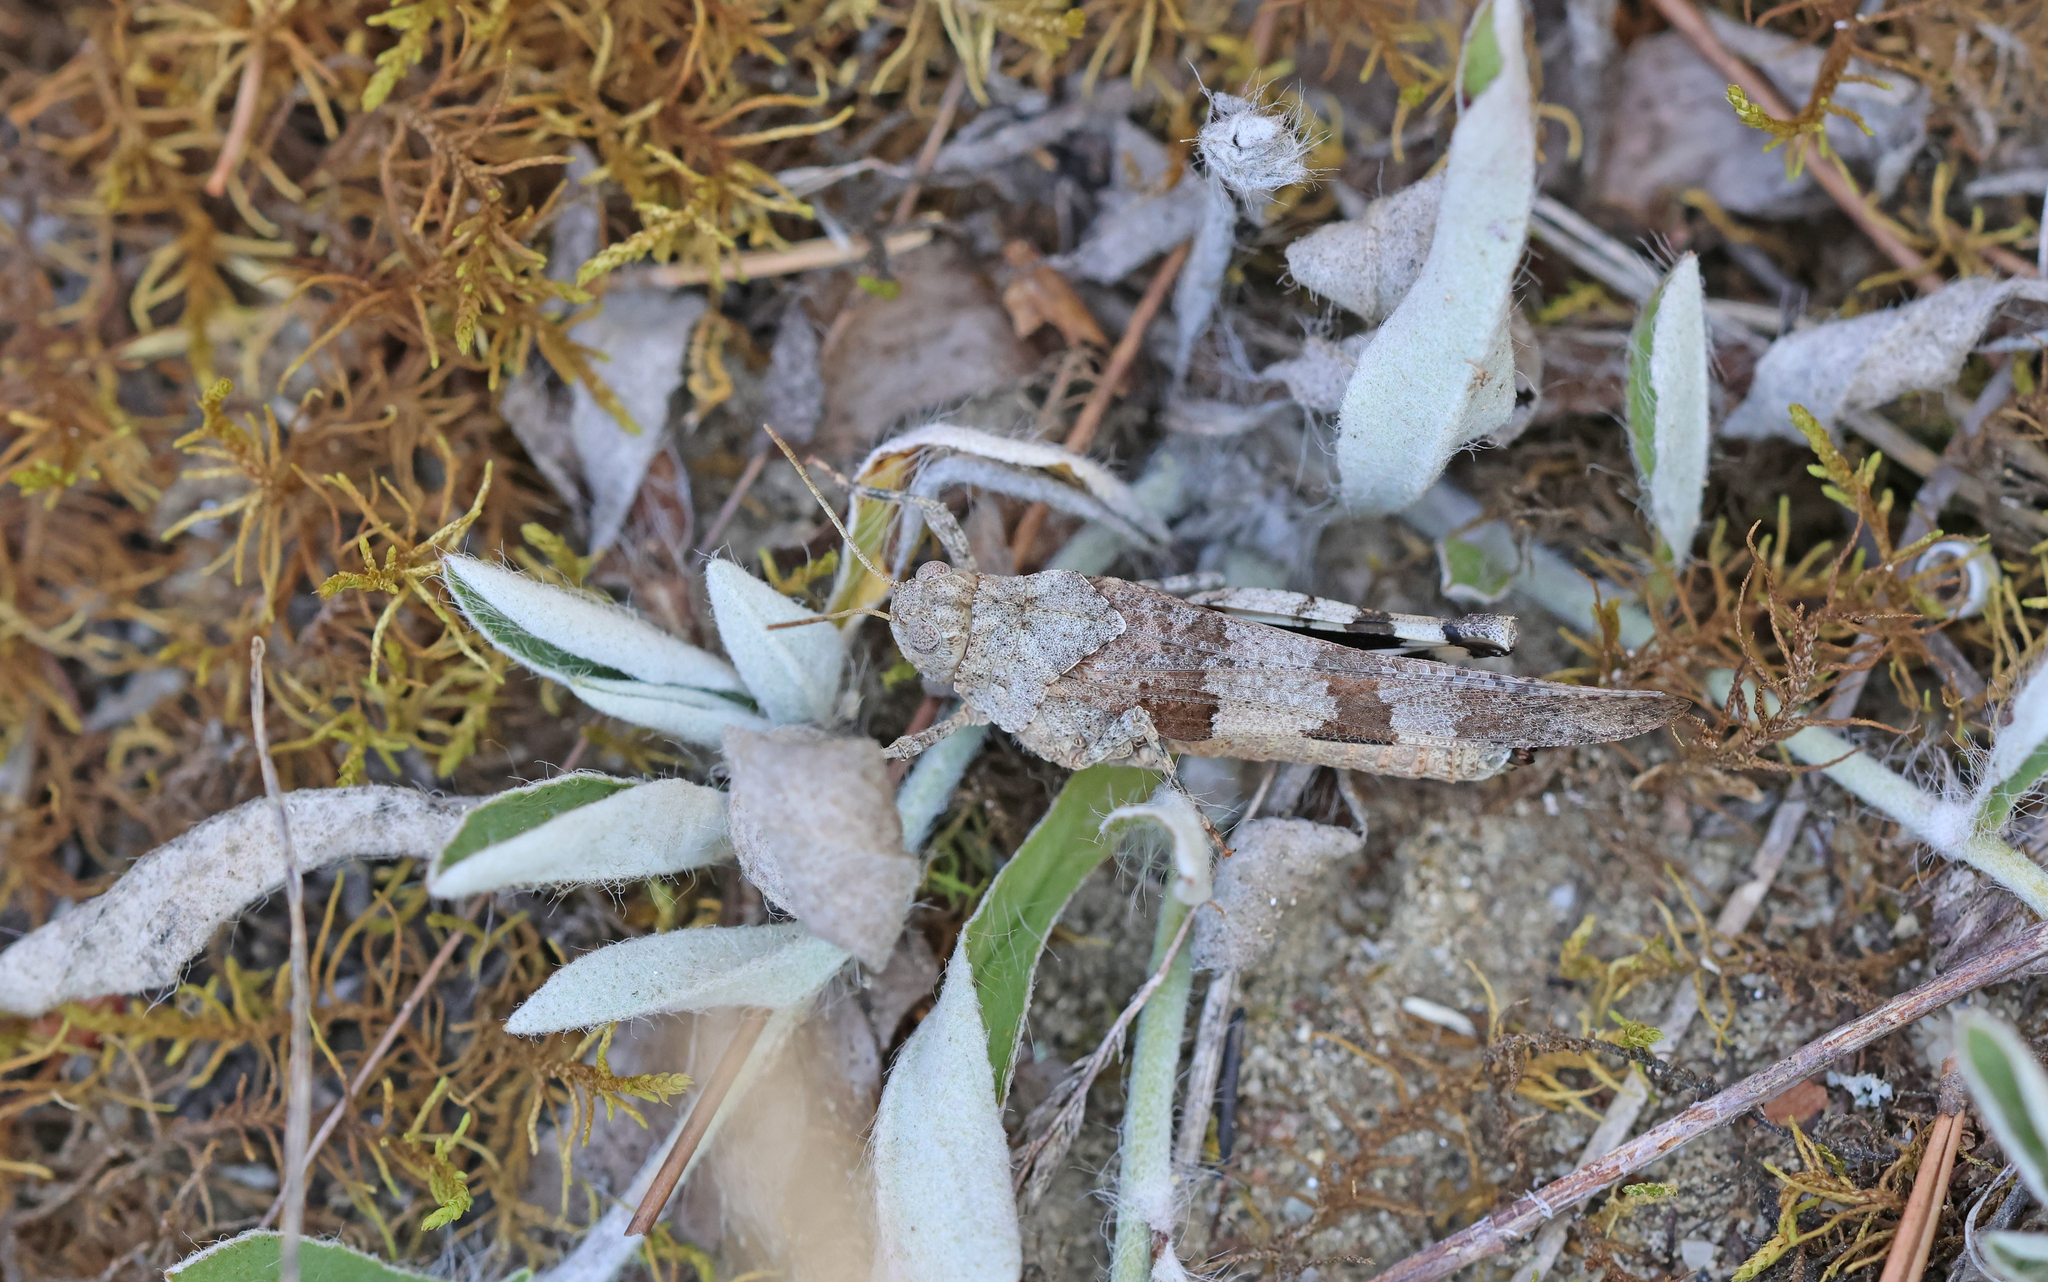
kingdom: Animalia
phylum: Arthropoda
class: Insecta
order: Orthoptera
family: Acrididae
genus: Oedipoda
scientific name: Oedipoda caerulescens
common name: Blue-winged grasshopper
